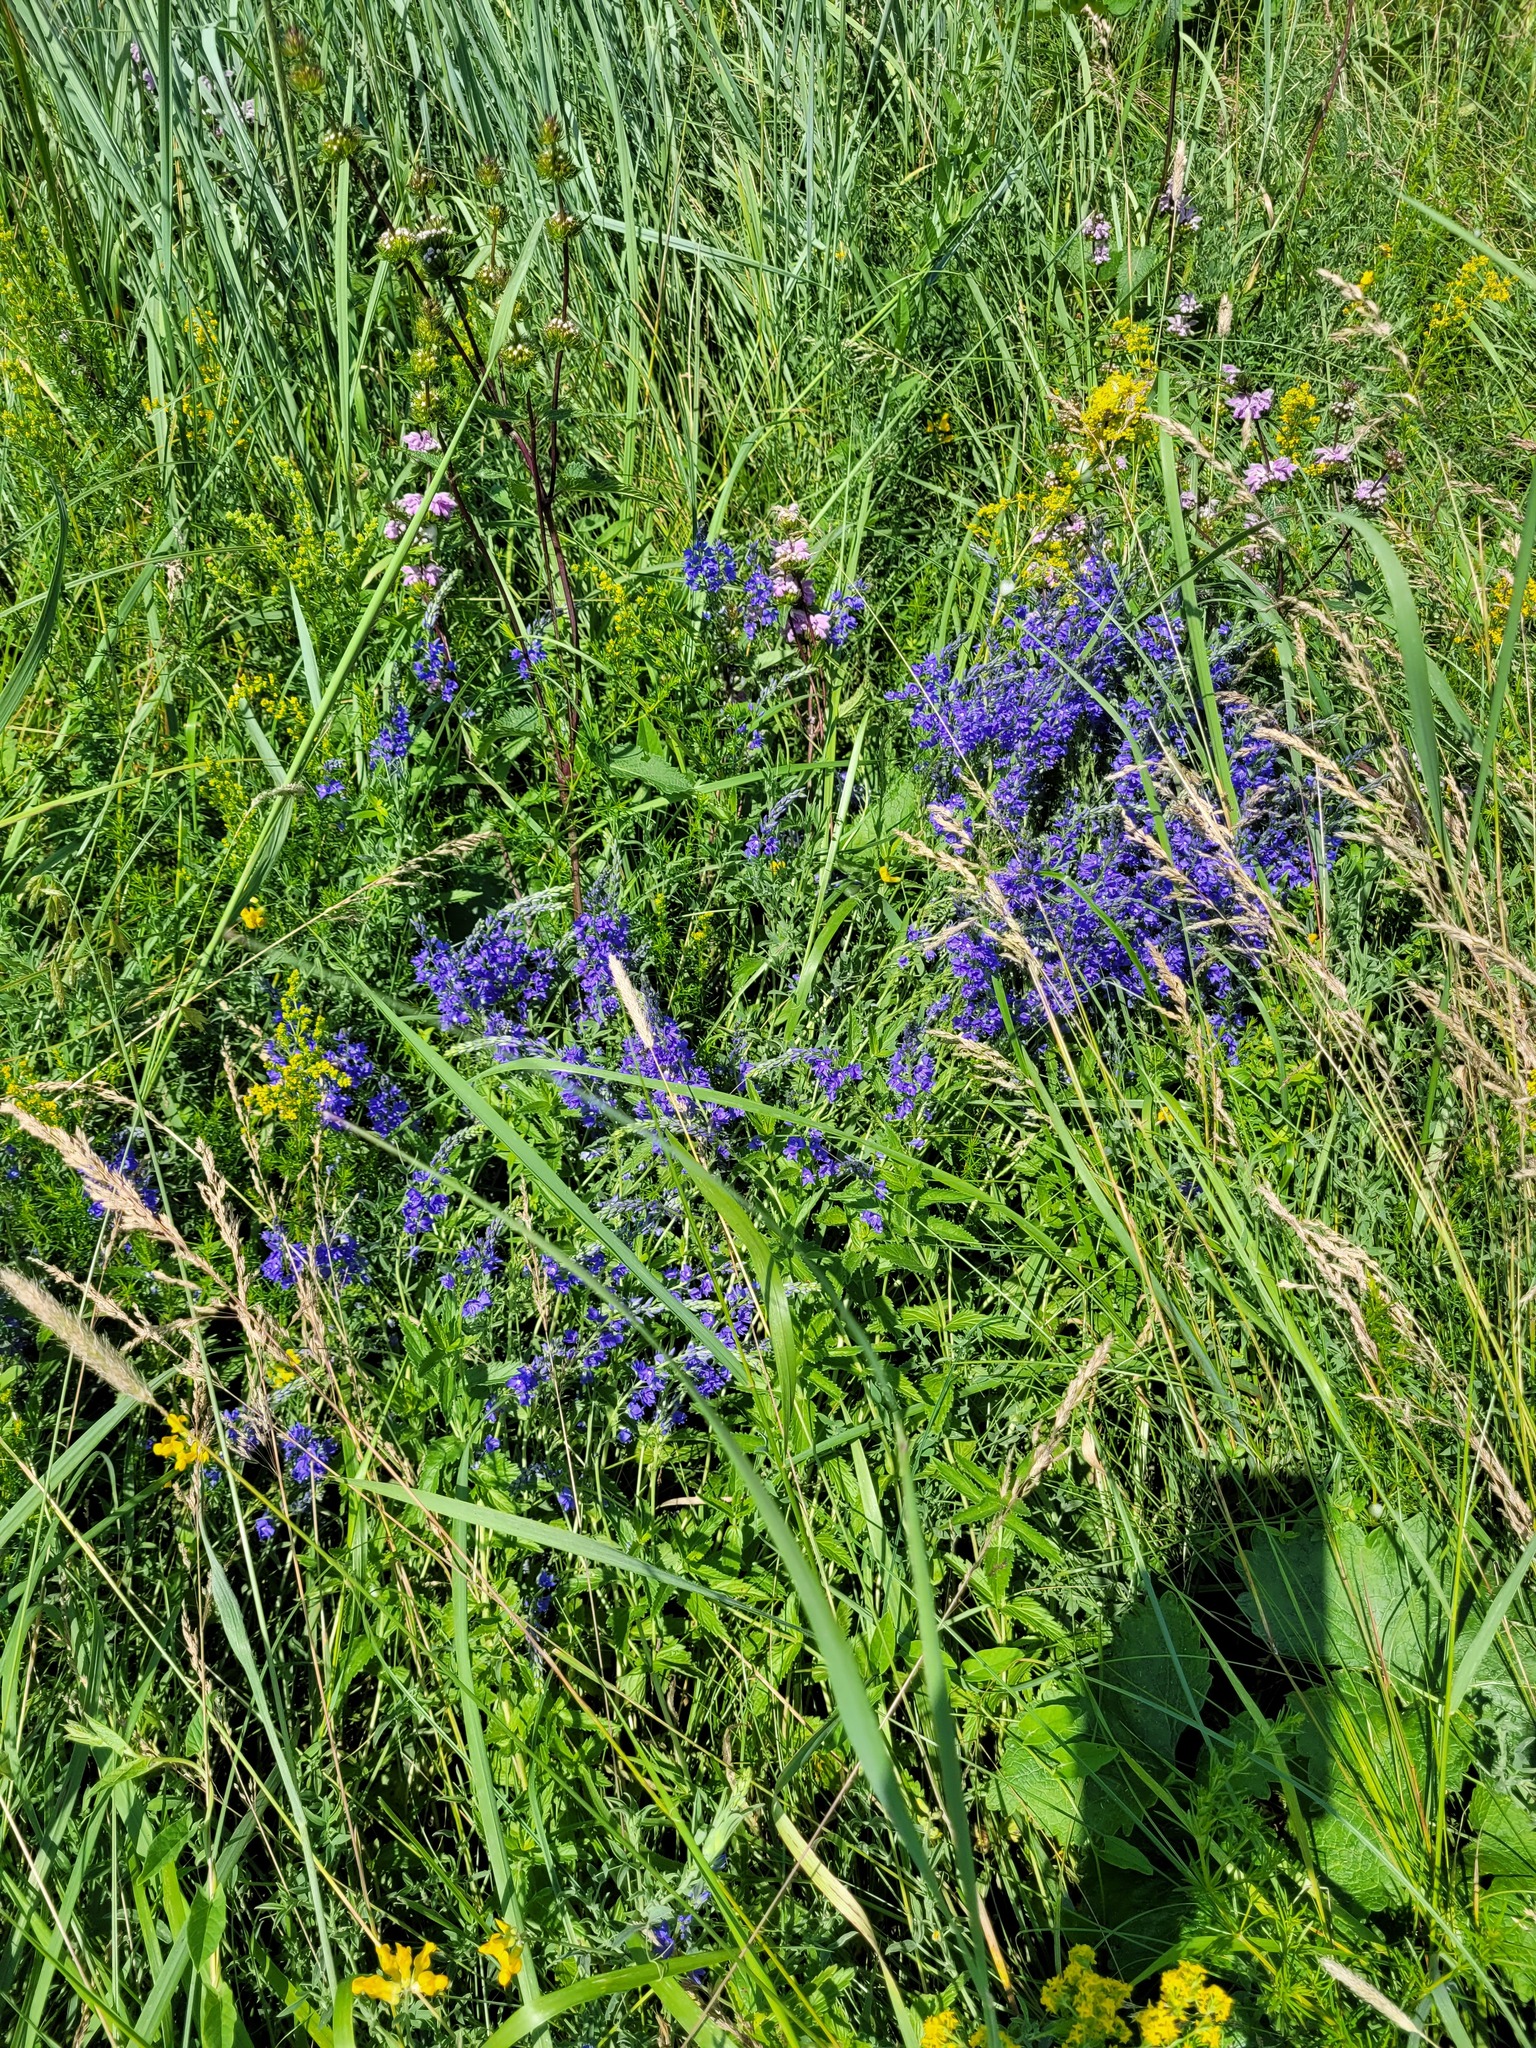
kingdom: Plantae
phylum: Tracheophyta
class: Magnoliopsida
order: Lamiales
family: Plantaginaceae
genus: Veronica
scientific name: Veronica teucrium
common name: Large speedwell
